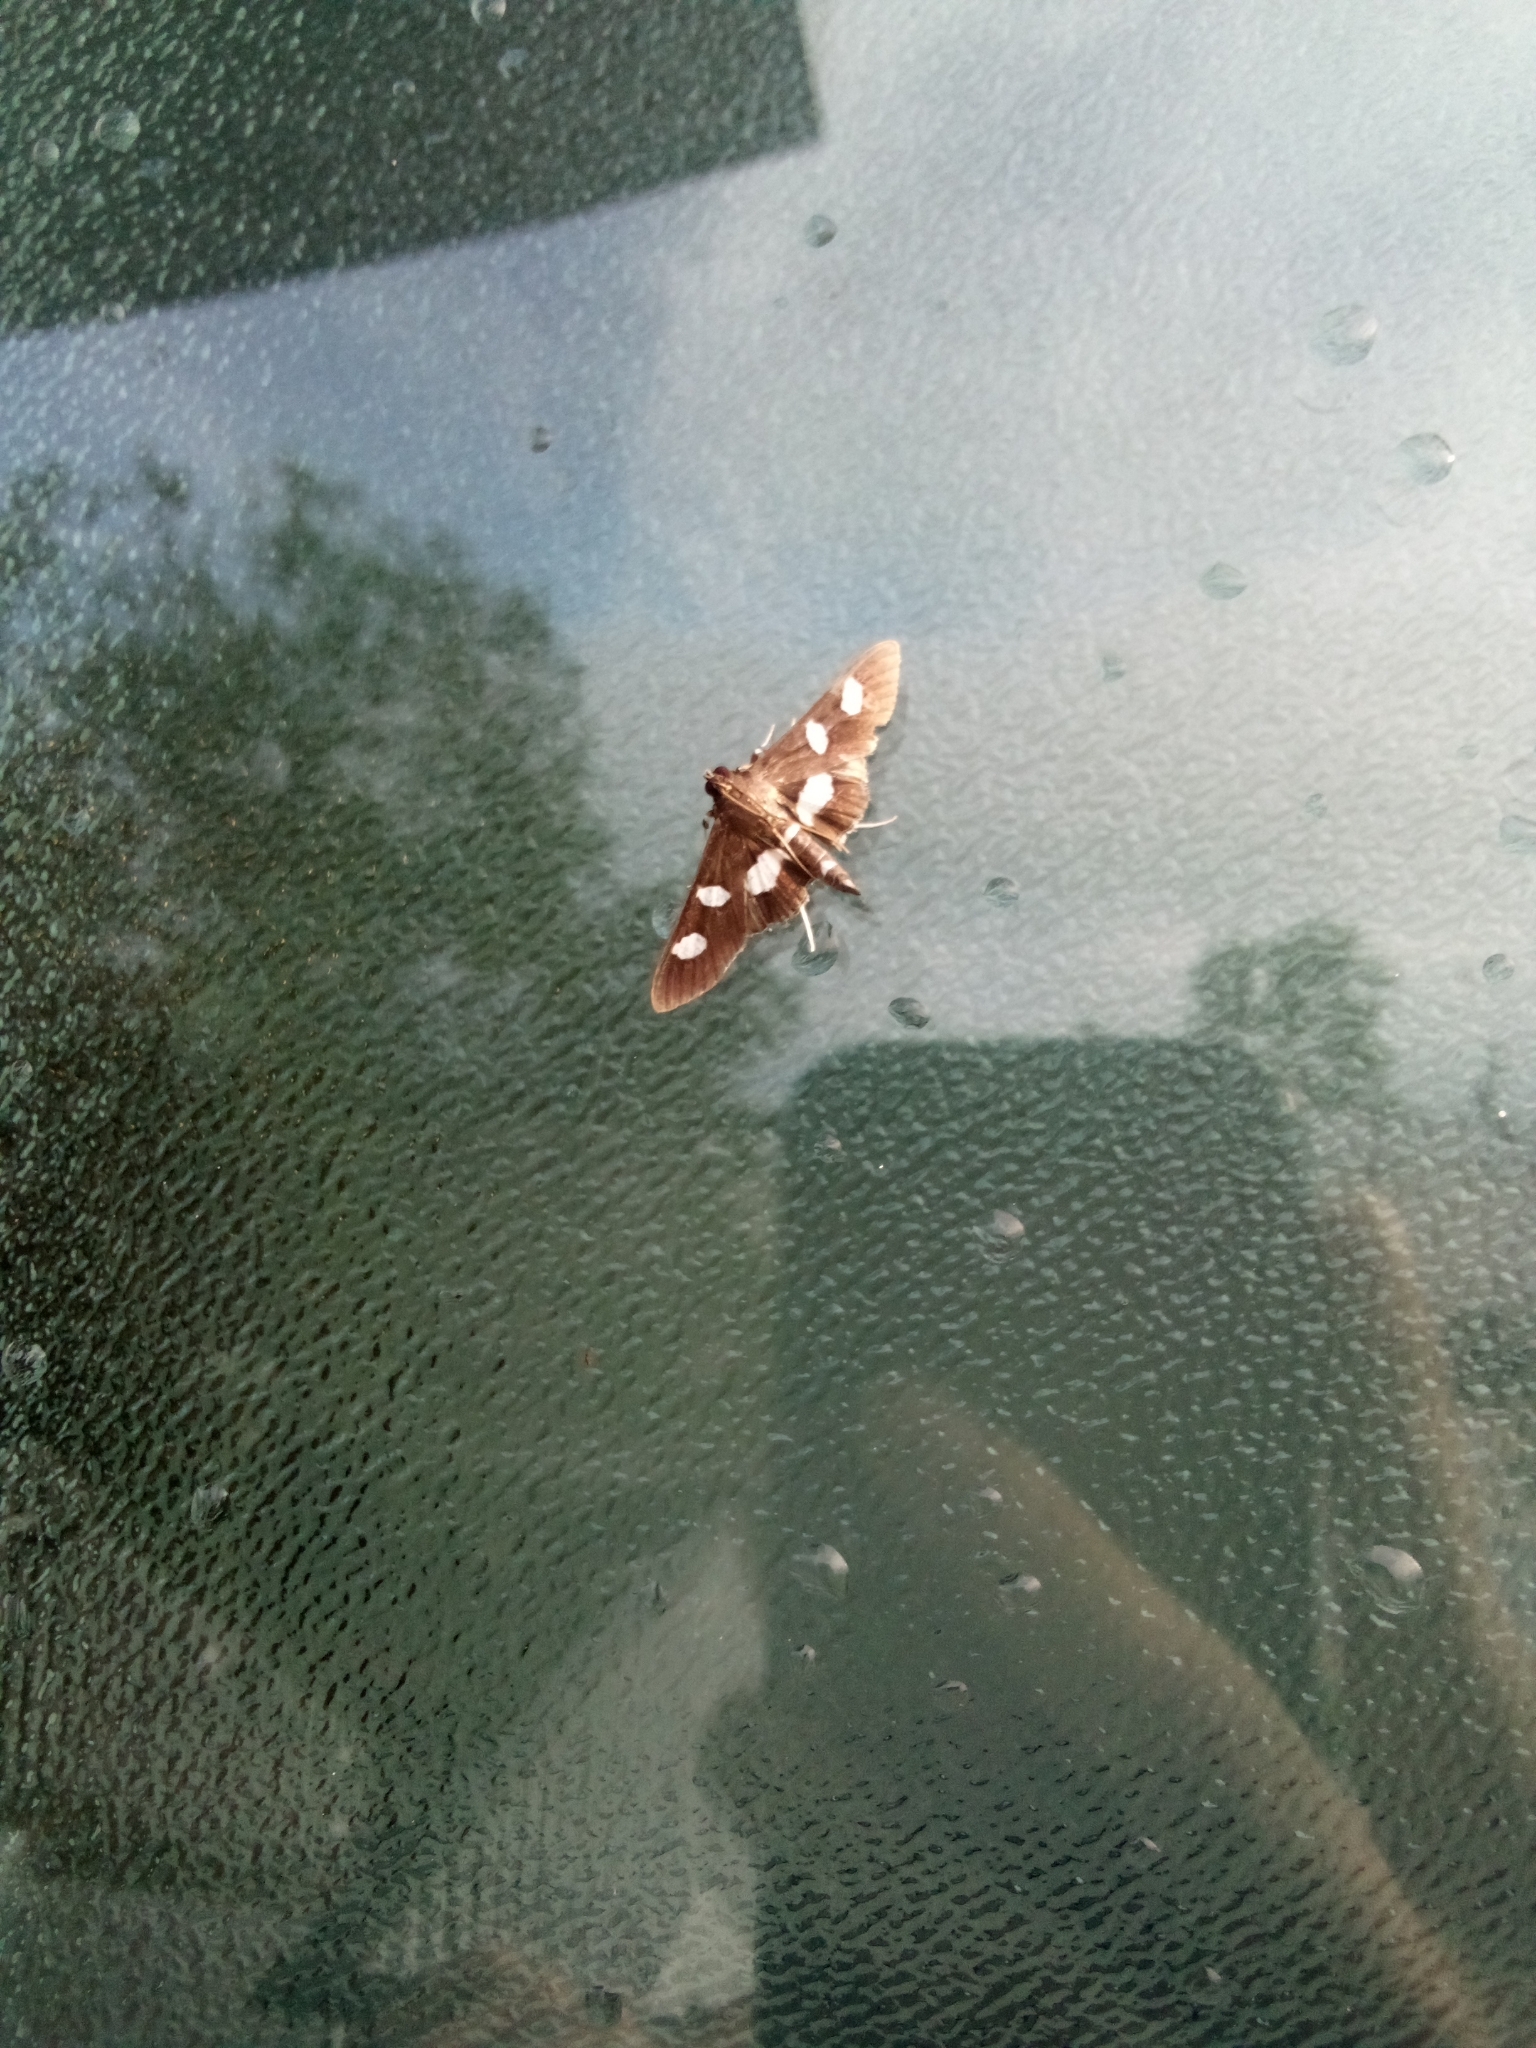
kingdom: Animalia
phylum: Arthropoda
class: Insecta
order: Lepidoptera
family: Crambidae
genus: Desmia
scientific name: Desmia
